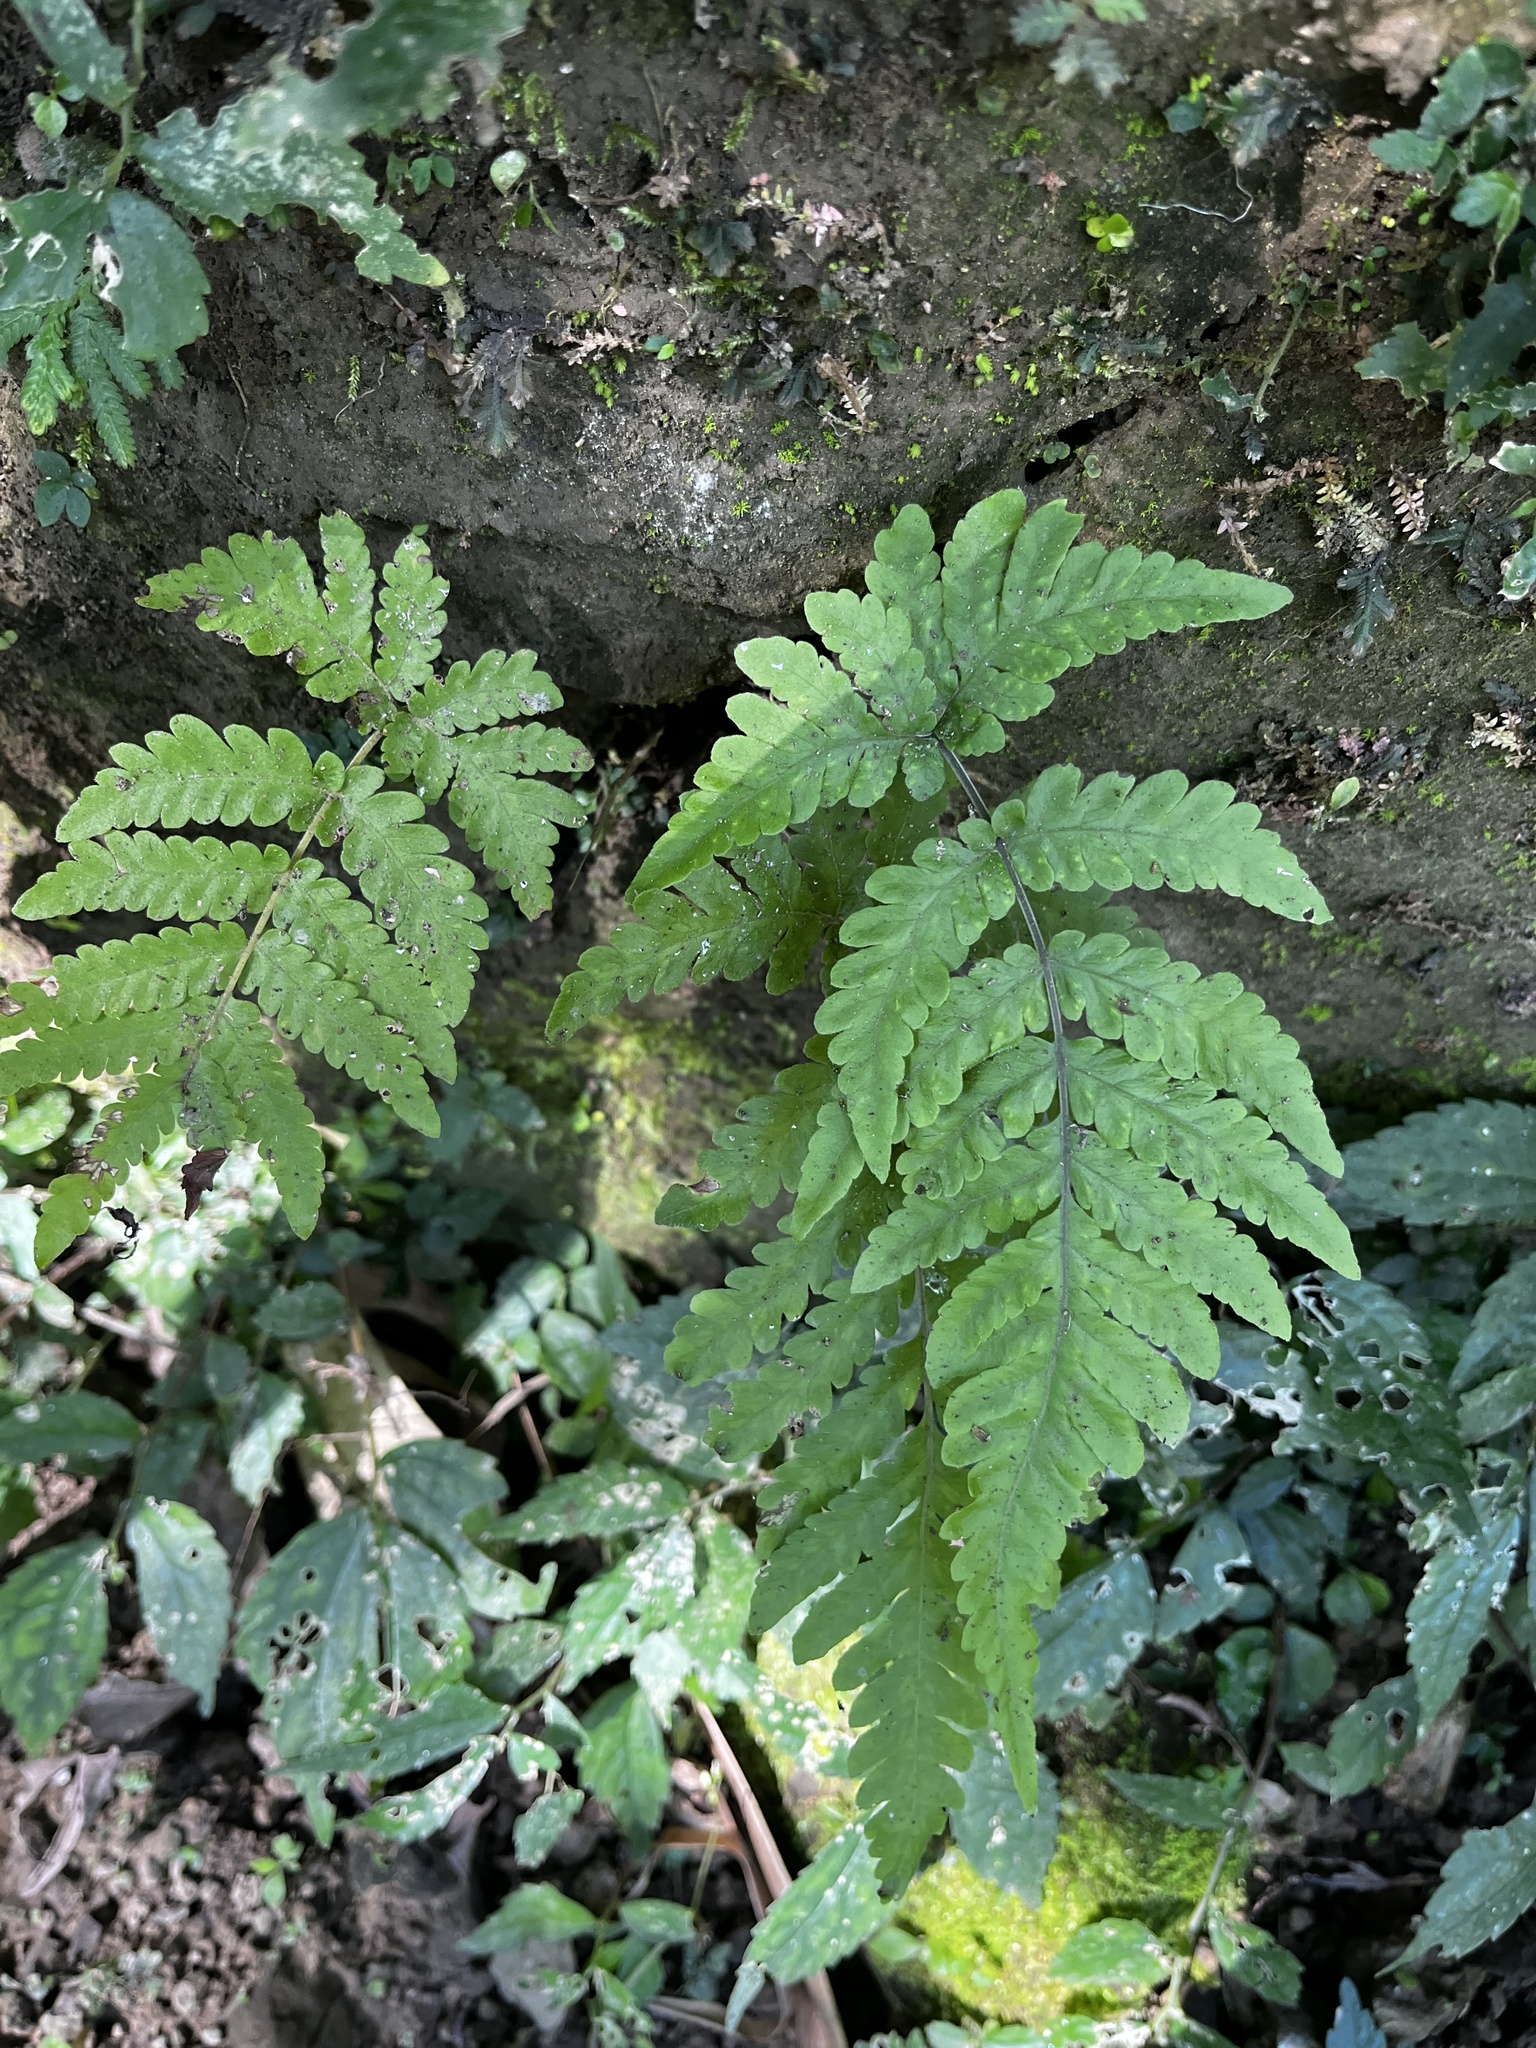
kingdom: Plantae
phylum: Tracheophyta
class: Polypodiopsida
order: Polypodiales
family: Tectariaceae
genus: Tectaria
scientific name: Tectaria dissecta
